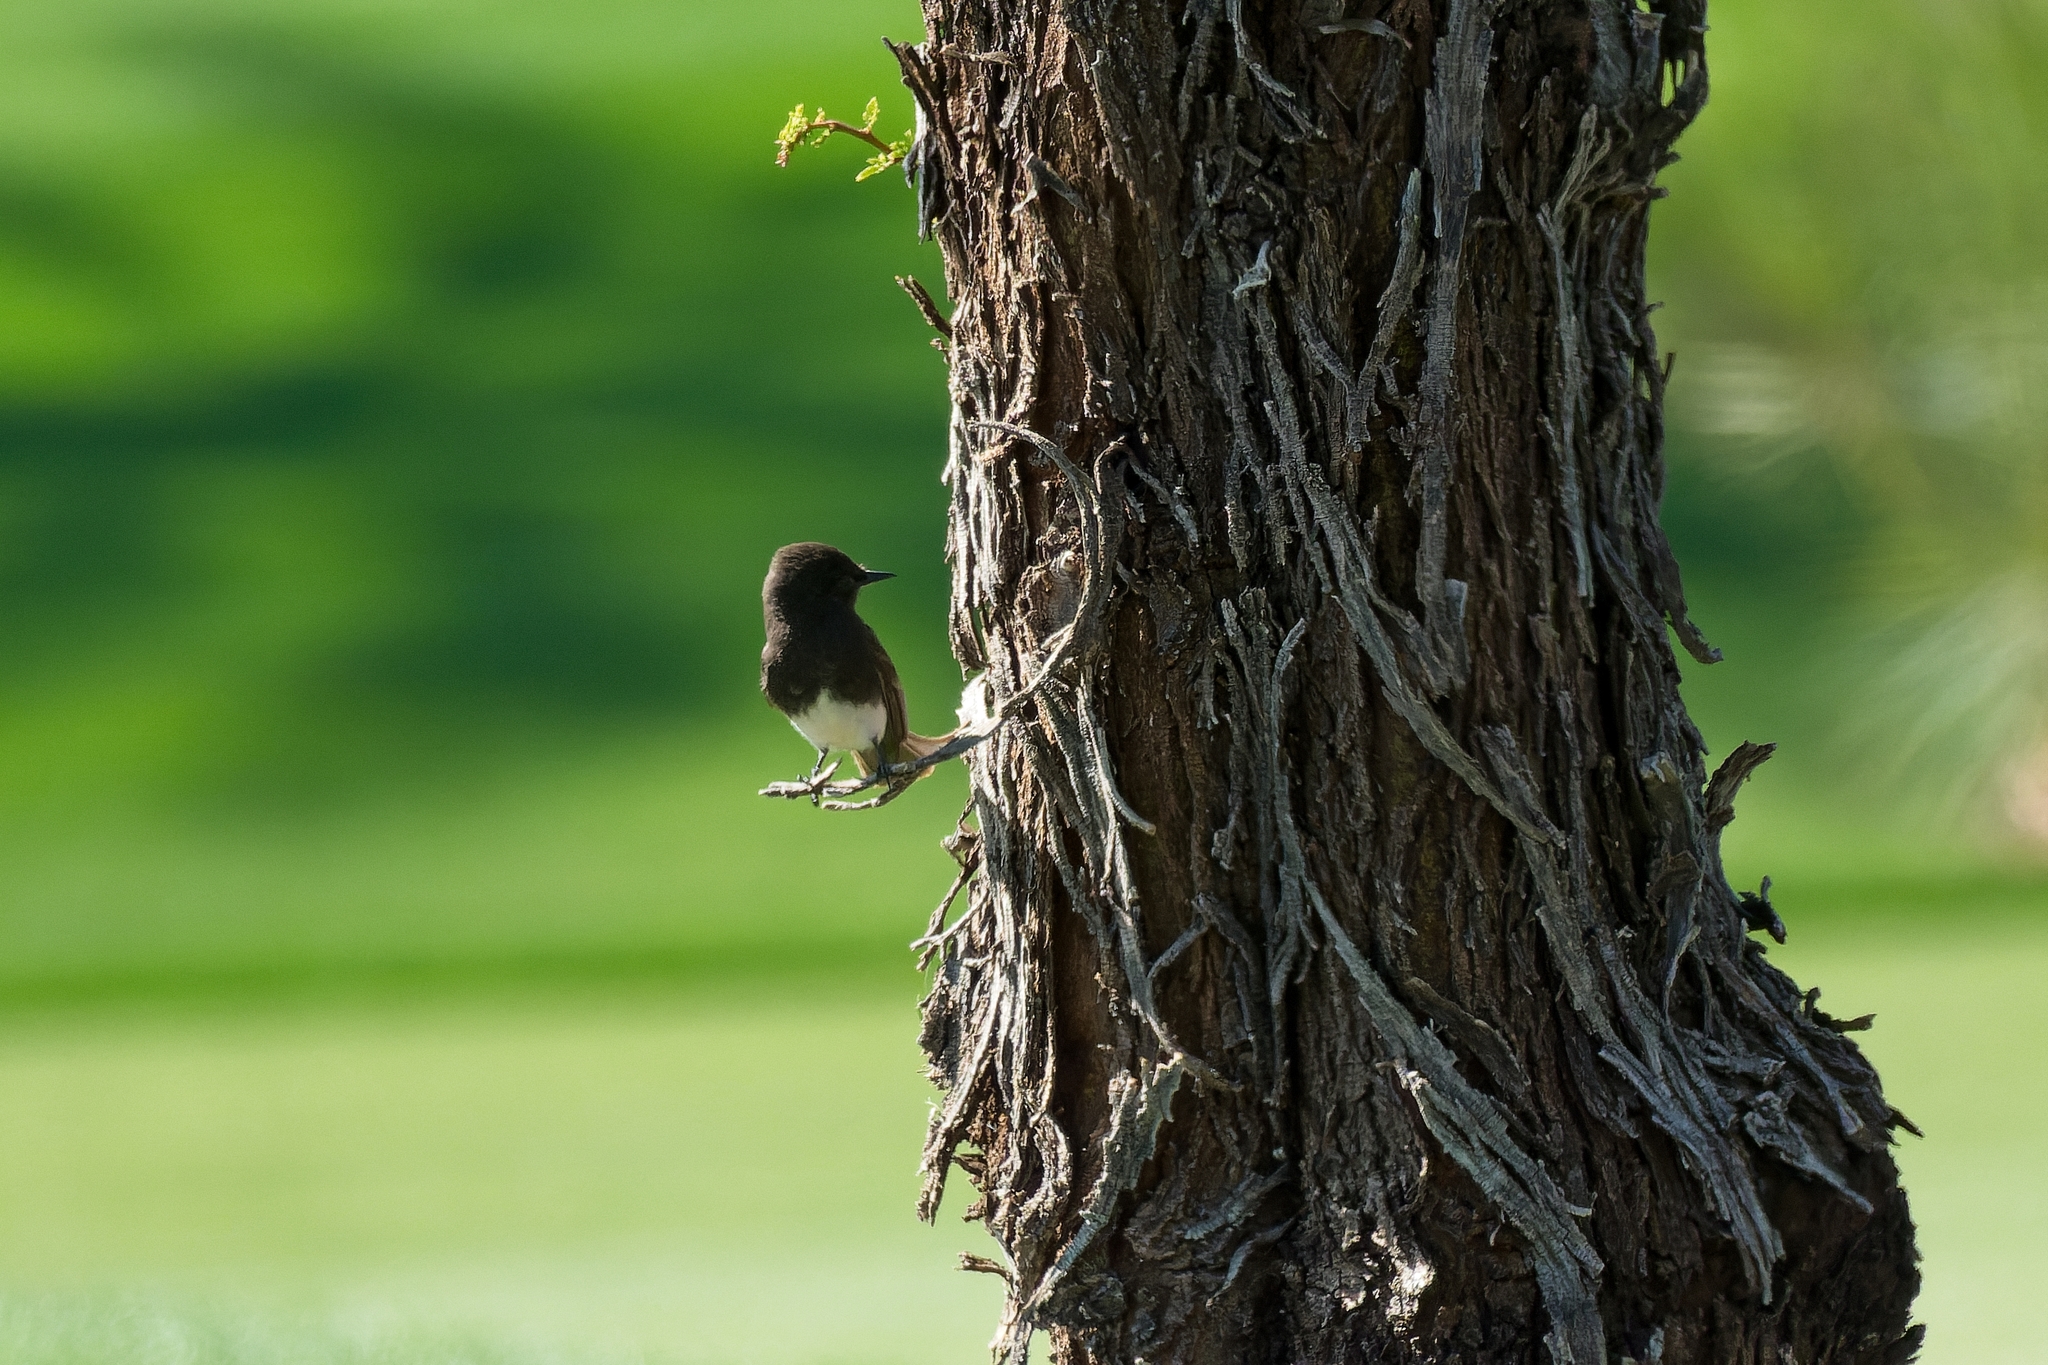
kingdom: Animalia
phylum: Chordata
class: Aves
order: Passeriformes
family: Tyrannidae
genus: Sayornis
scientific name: Sayornis nigricans
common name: Black phoebe
